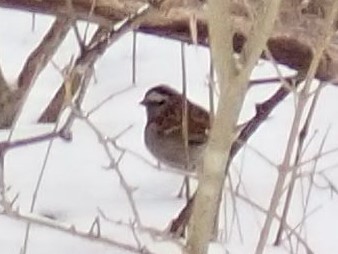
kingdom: Animalia
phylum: Chordata
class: Aves
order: Passeriformes
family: Passerellidae
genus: Zonotrichia
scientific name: Zonotrichia albicollis
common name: White-throated sparrow
